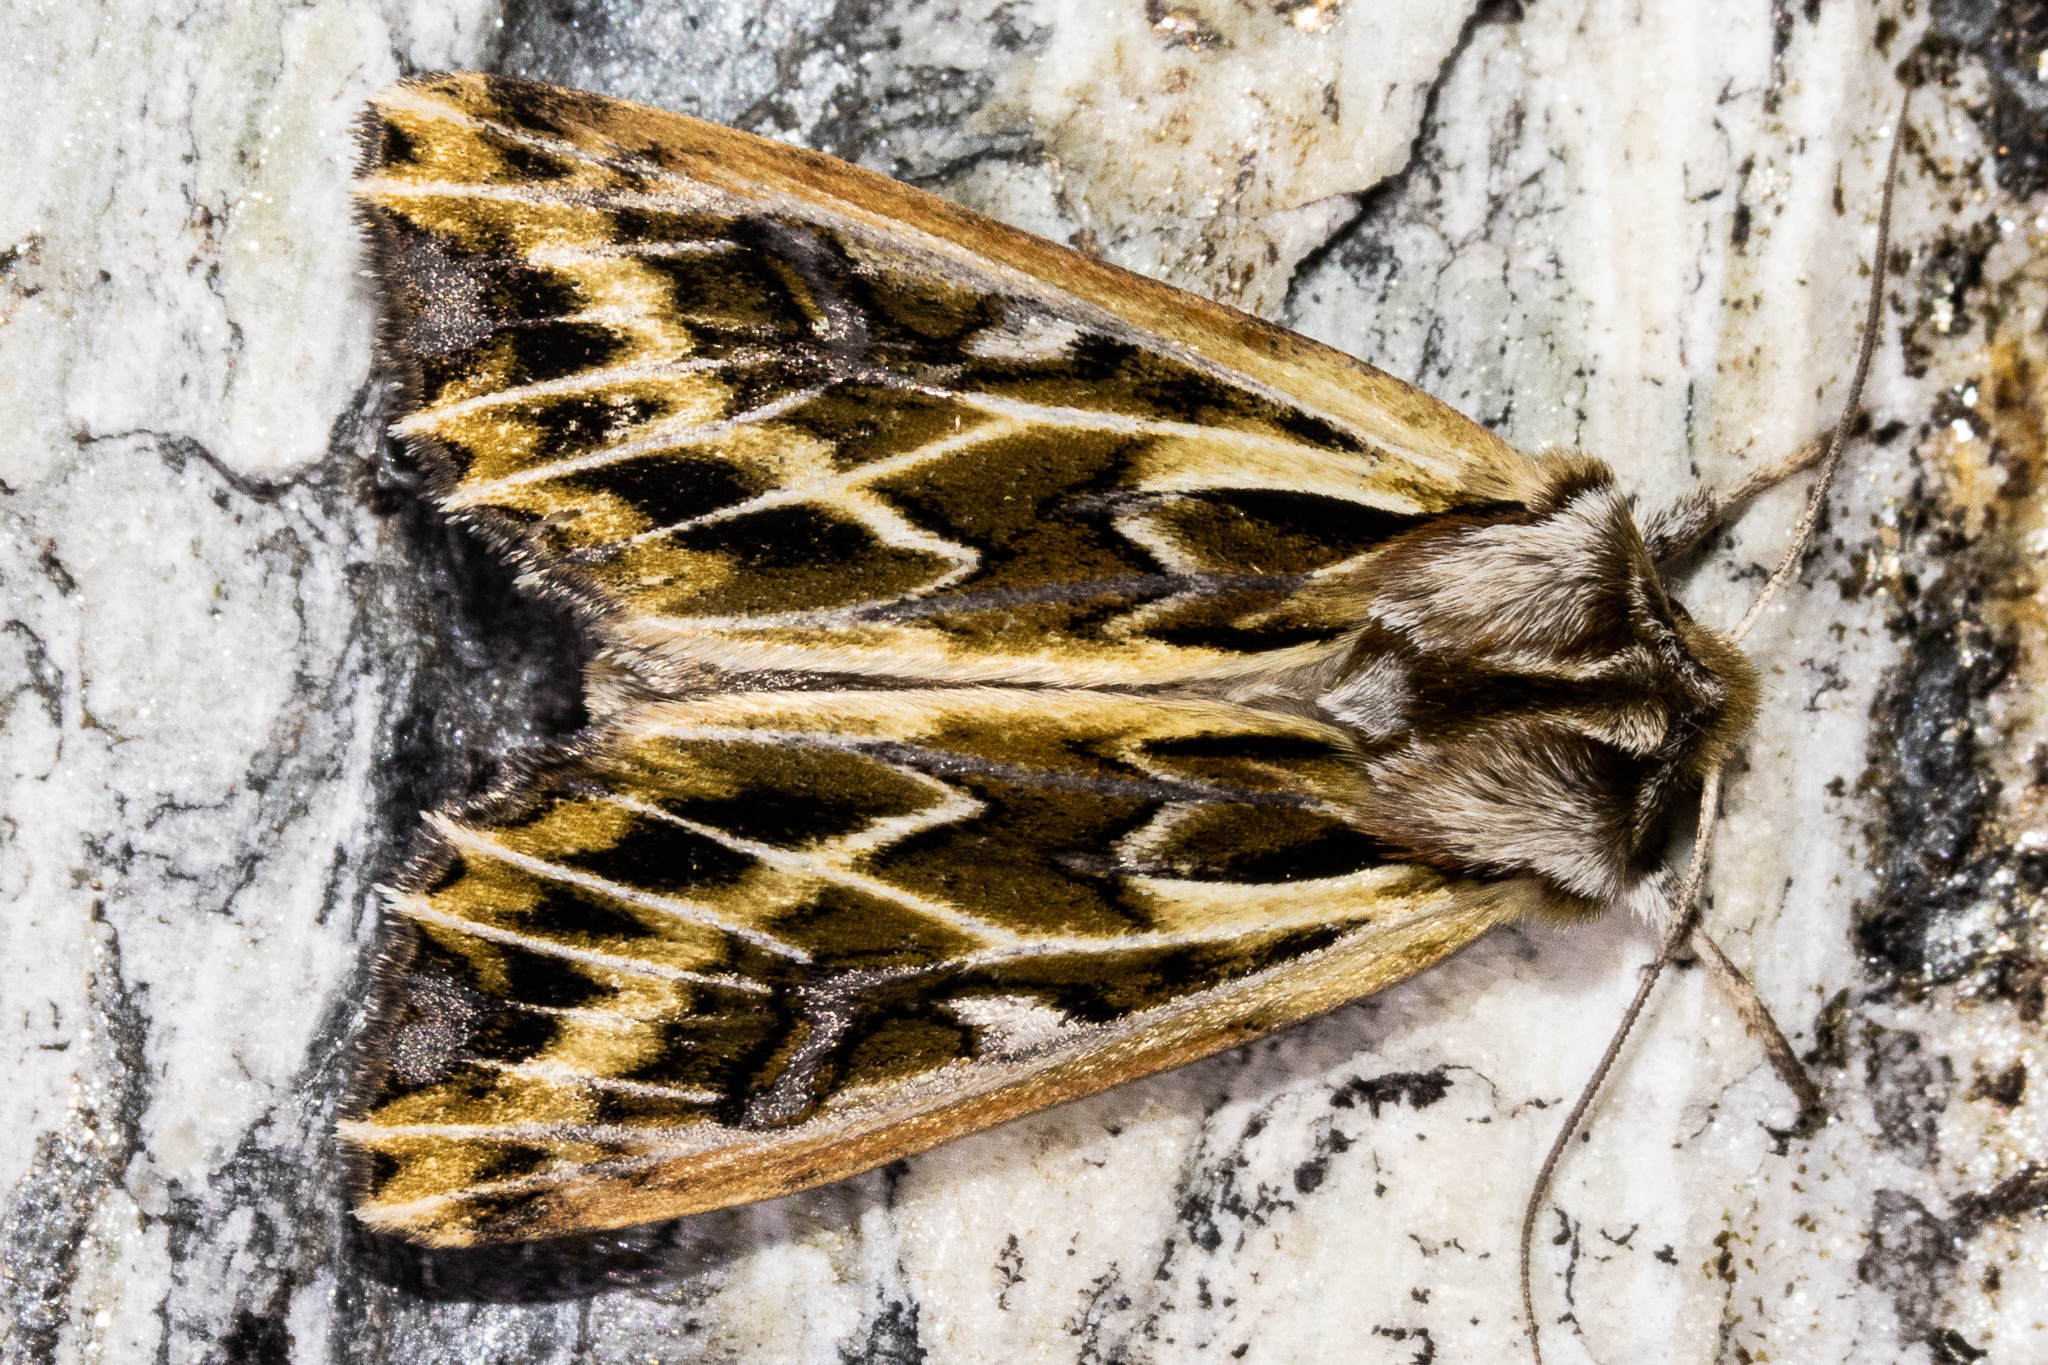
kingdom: Animalia
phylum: Arthropoda
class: Insecta
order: Lepidoptera
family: Noctuidae
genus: Ichneutica
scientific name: Ichneutica
